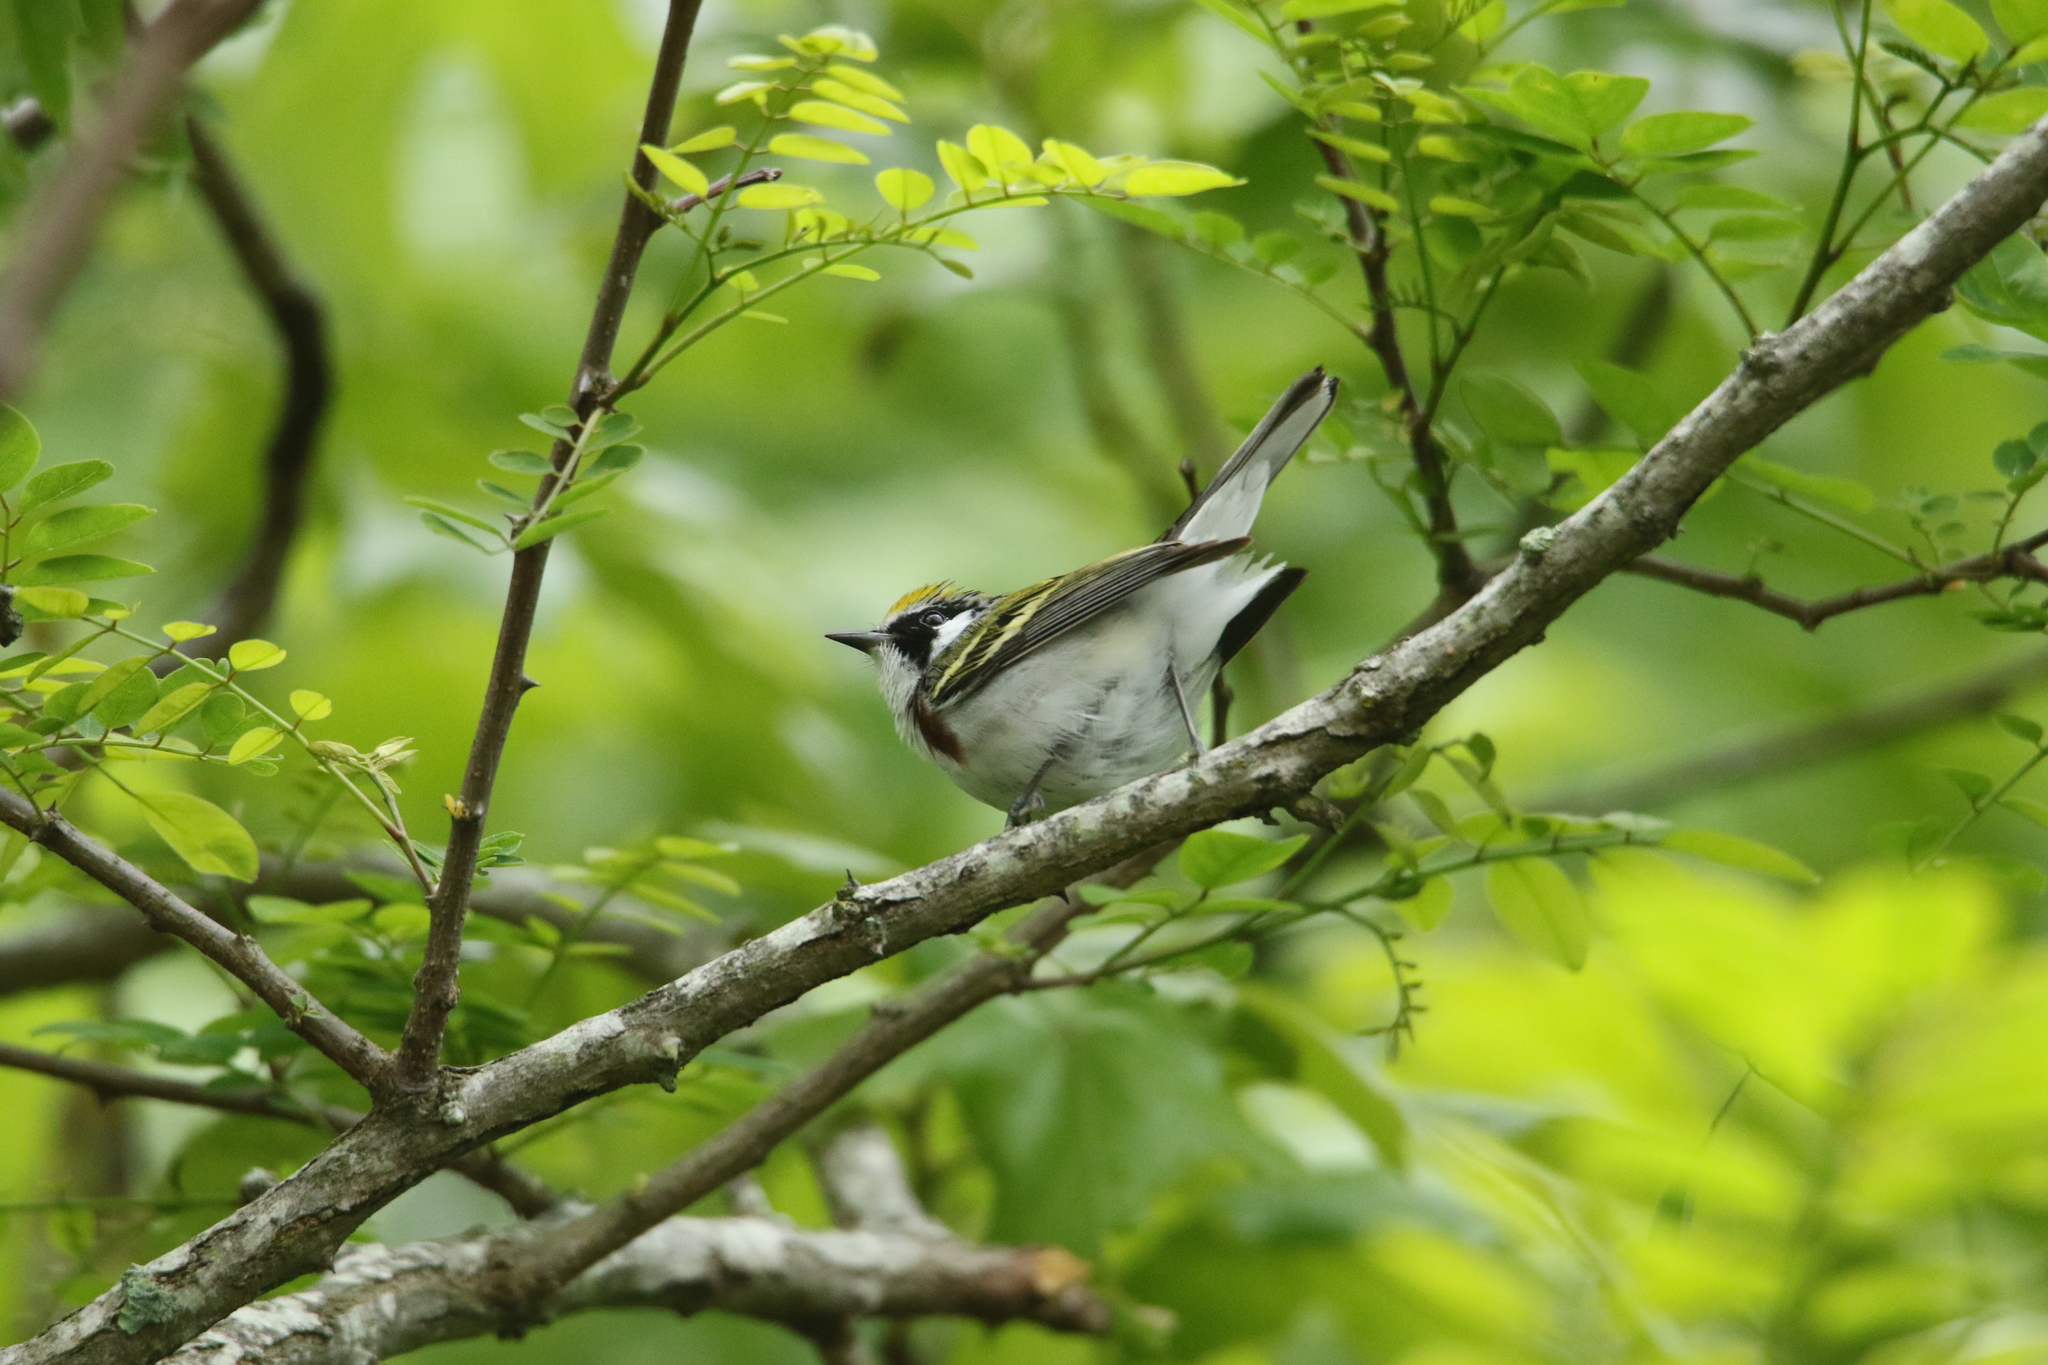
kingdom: Animalia
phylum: Chordata
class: Aves
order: Passeriformes
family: Parulidae
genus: Setophaga
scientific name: Setophaga pensylvanica
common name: Chestnut-sided warbler
